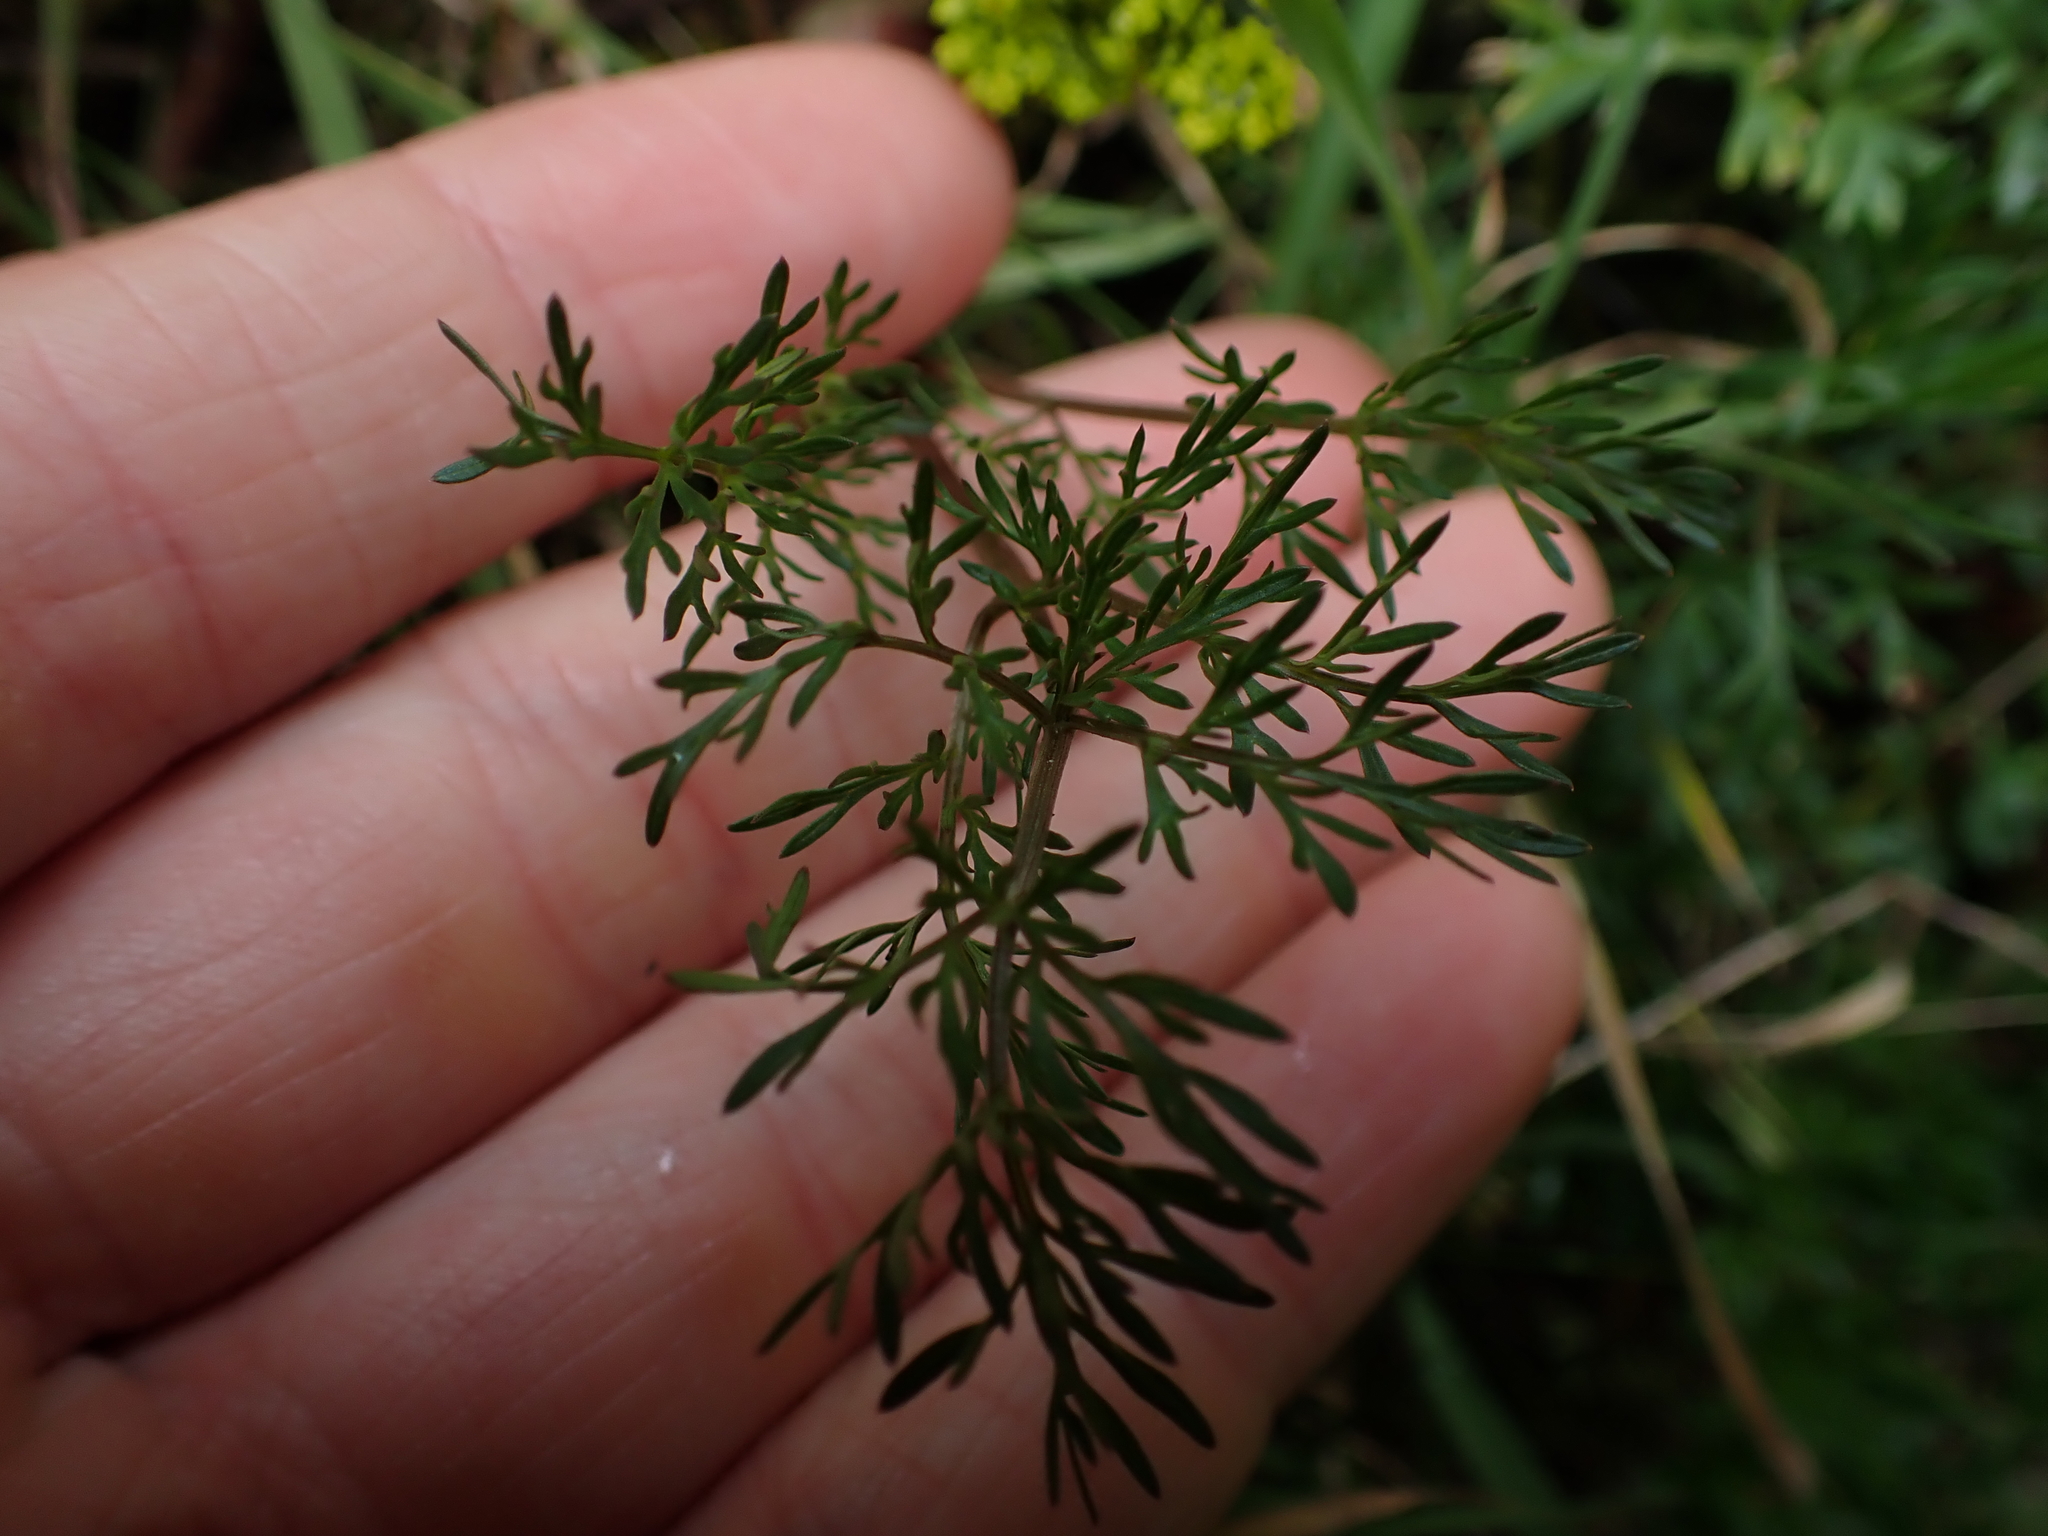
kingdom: Plantae
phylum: Tracheophyta
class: Magnoliopsida
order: Apiales
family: Apiaceae
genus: Lomatium
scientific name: Lomatium utriculatum
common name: Fine-leaf desert-parsley
